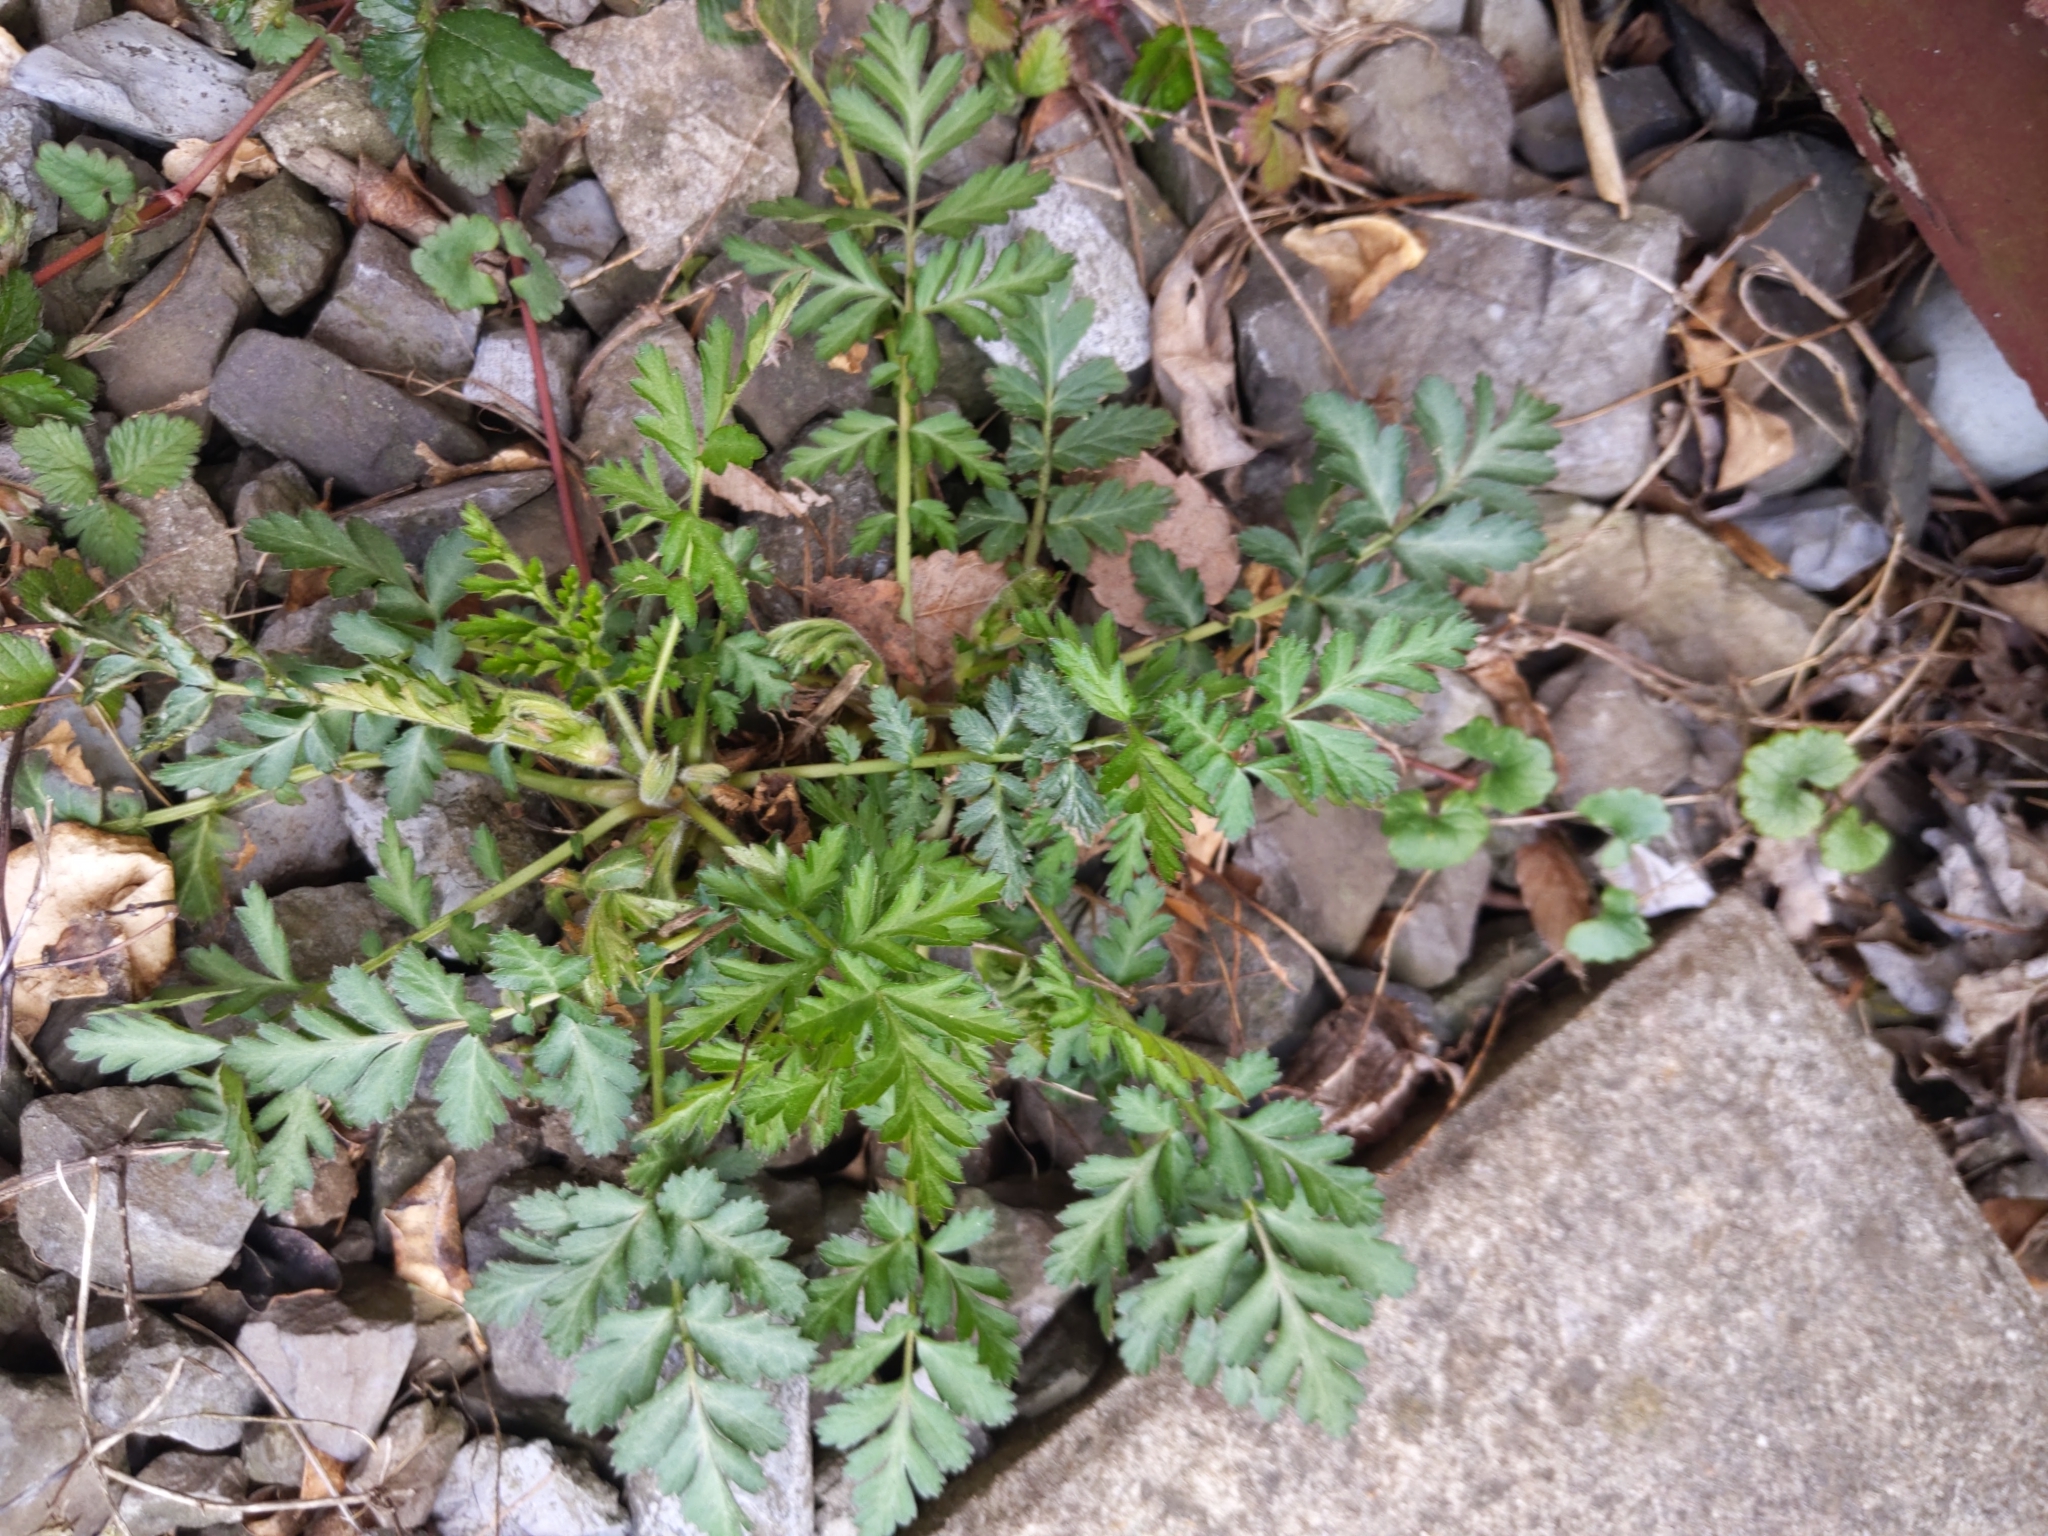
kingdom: Plantae
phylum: Tracheophyta
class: Magnoliopsida
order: Rosales
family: Rosaceae
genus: Geum
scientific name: Geum canadense
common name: White avens
